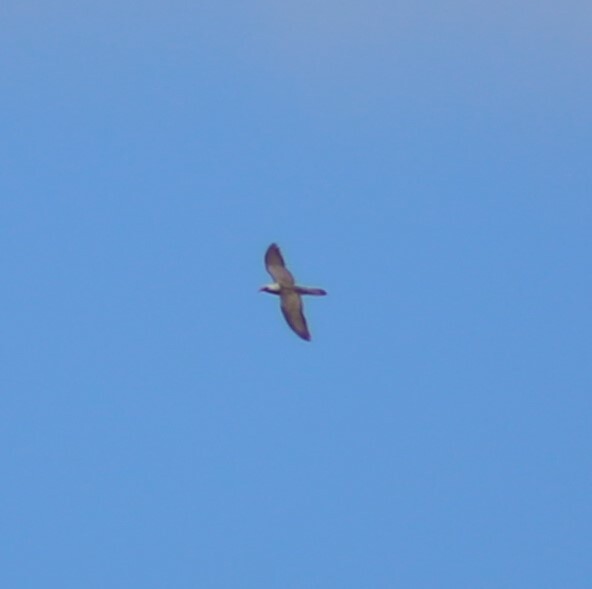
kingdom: Animalia
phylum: Chordata
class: Aves
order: Cuculiformes
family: Cuculidae
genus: Scythrops
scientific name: Scythrops novaehollandiae
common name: Channel-billed cuckoo
